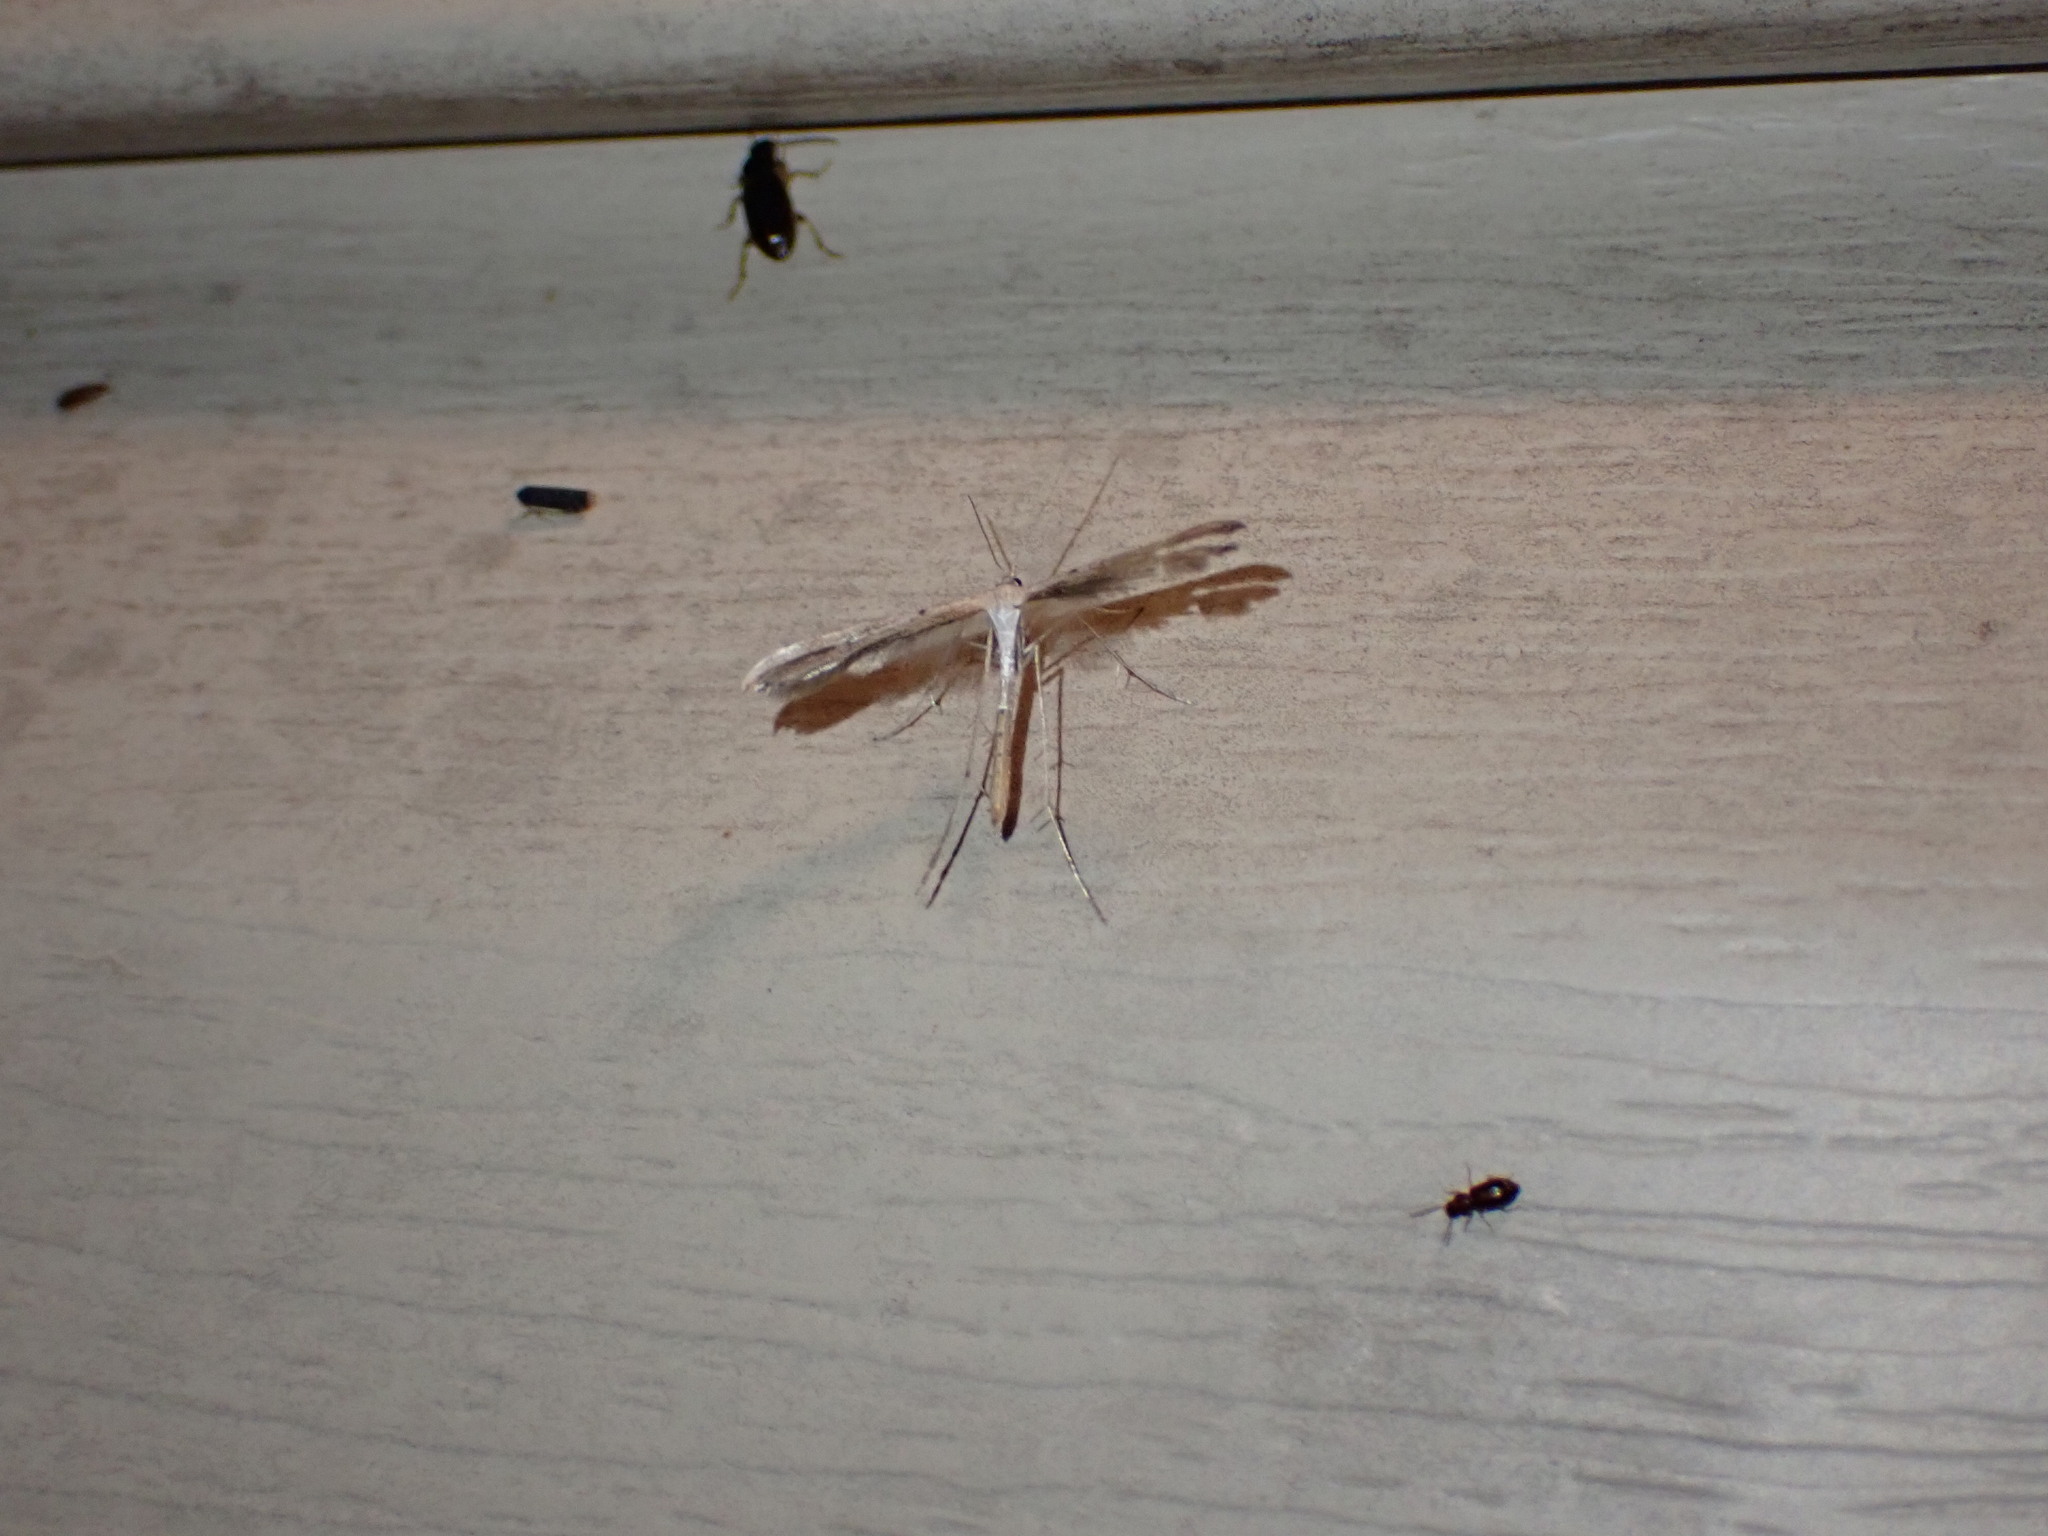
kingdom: Animalia
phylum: Arthropoda
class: Insecta
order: Lepidoptera
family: Pterophoridae
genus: Emmelina
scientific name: Emmelina monodactyla
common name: Common plume
